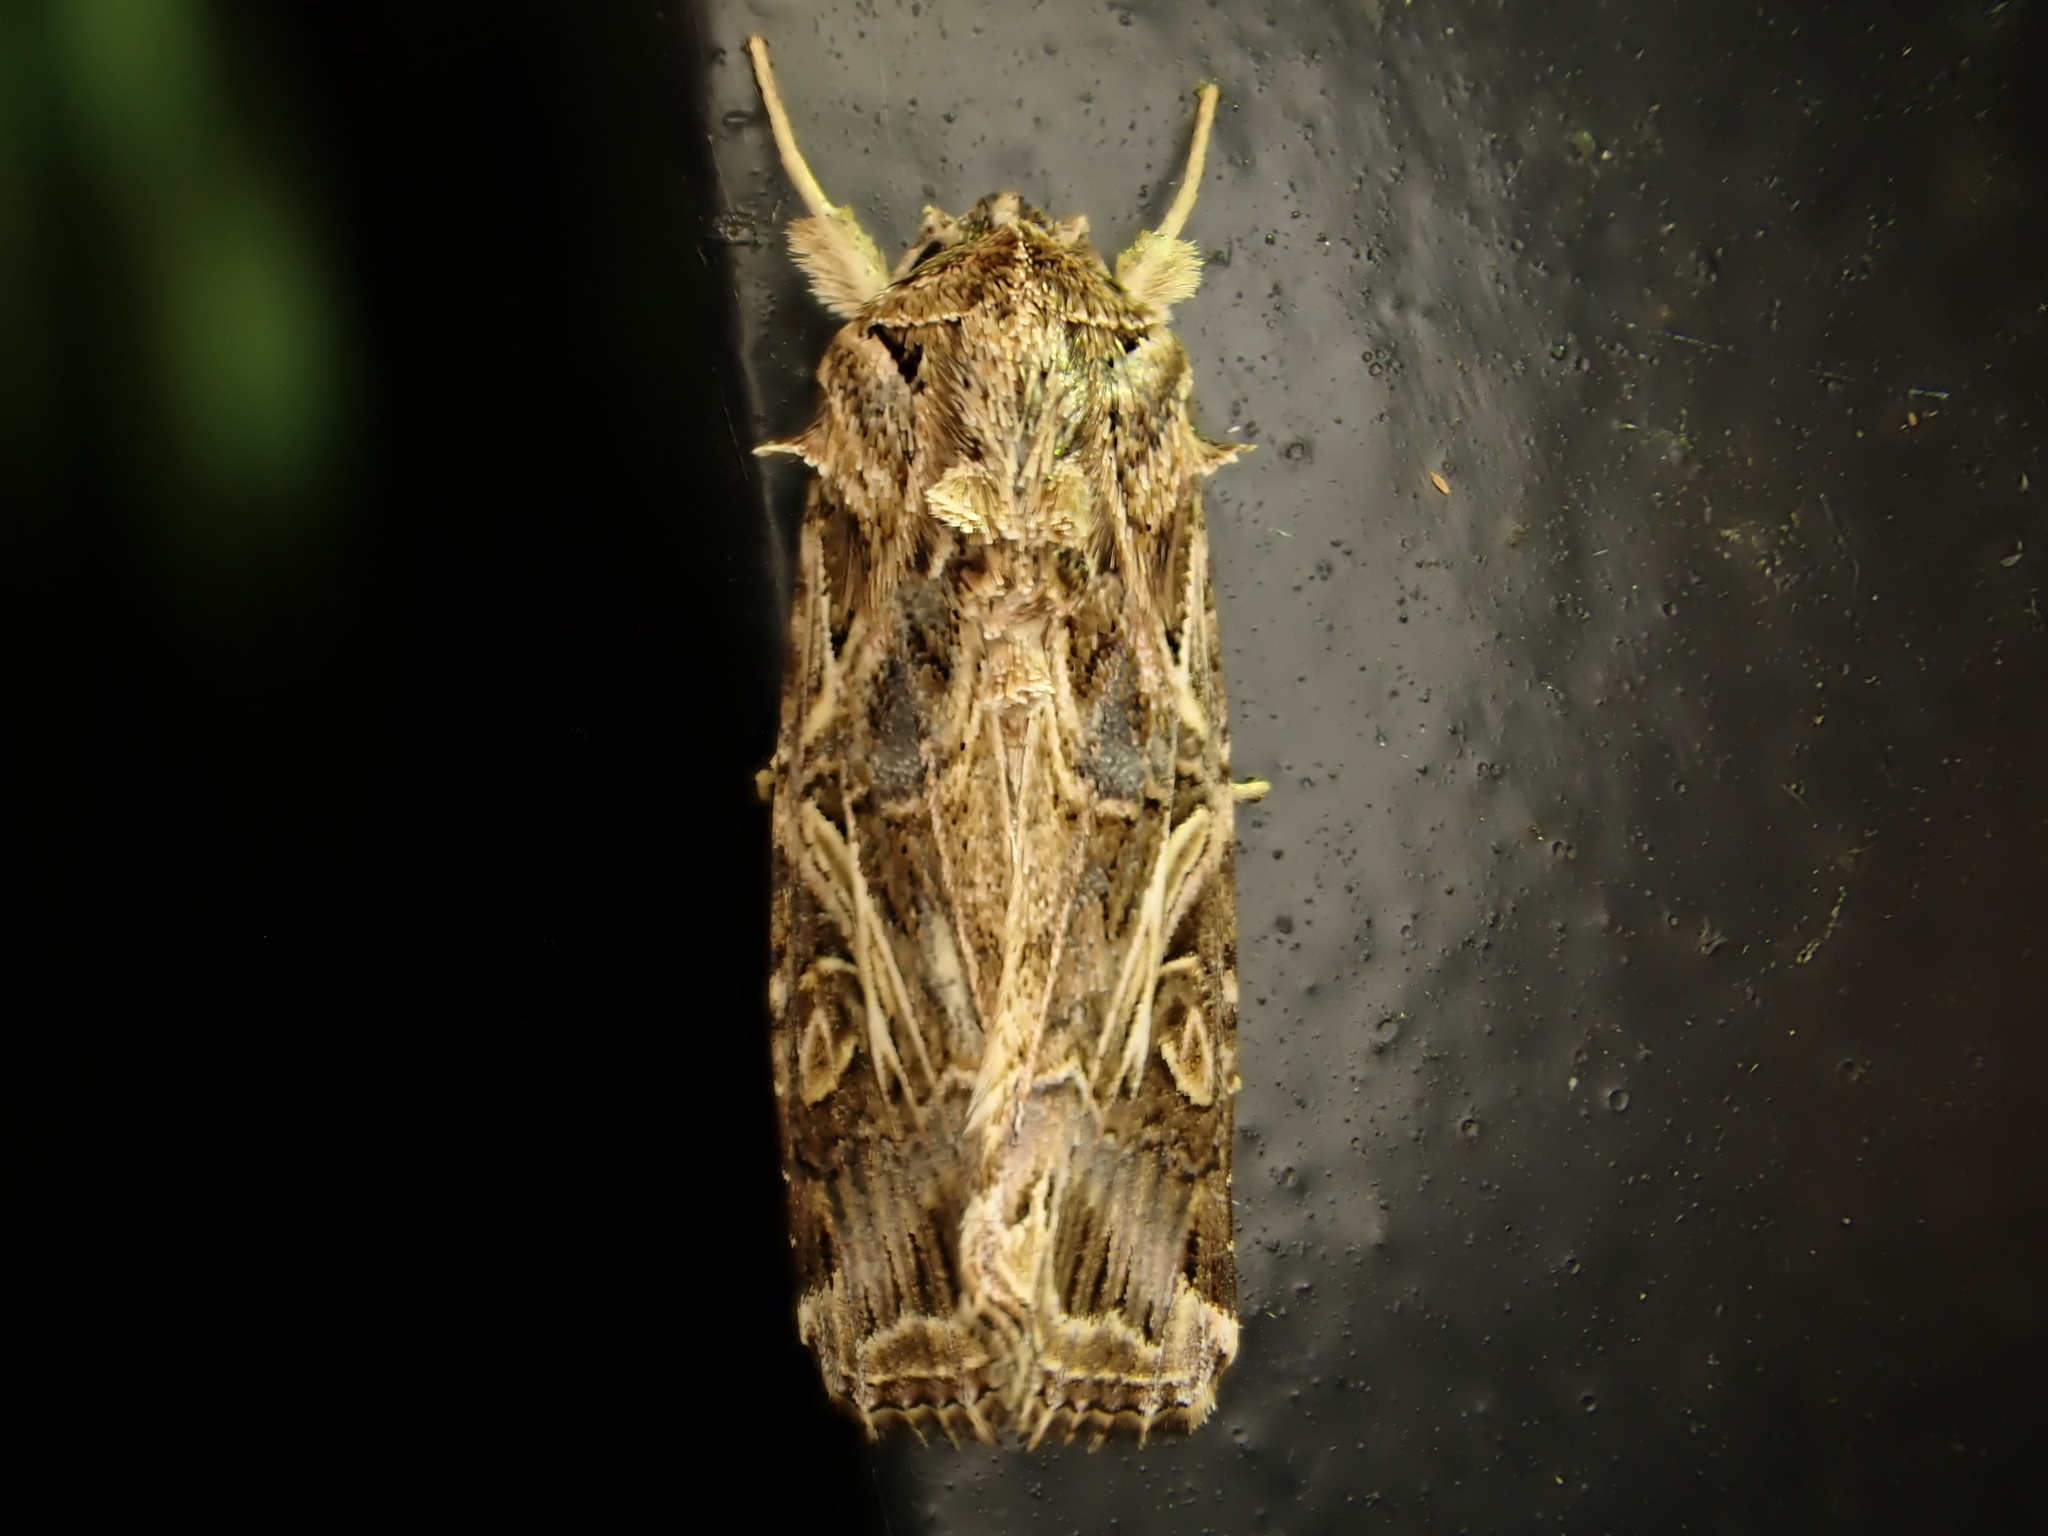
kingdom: Animalia
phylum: Arthropoda
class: Insecta
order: Lepidoptera
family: Noctuidae
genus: Spodoptera
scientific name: Spodoptera litura
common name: Asian cotton leafworm
